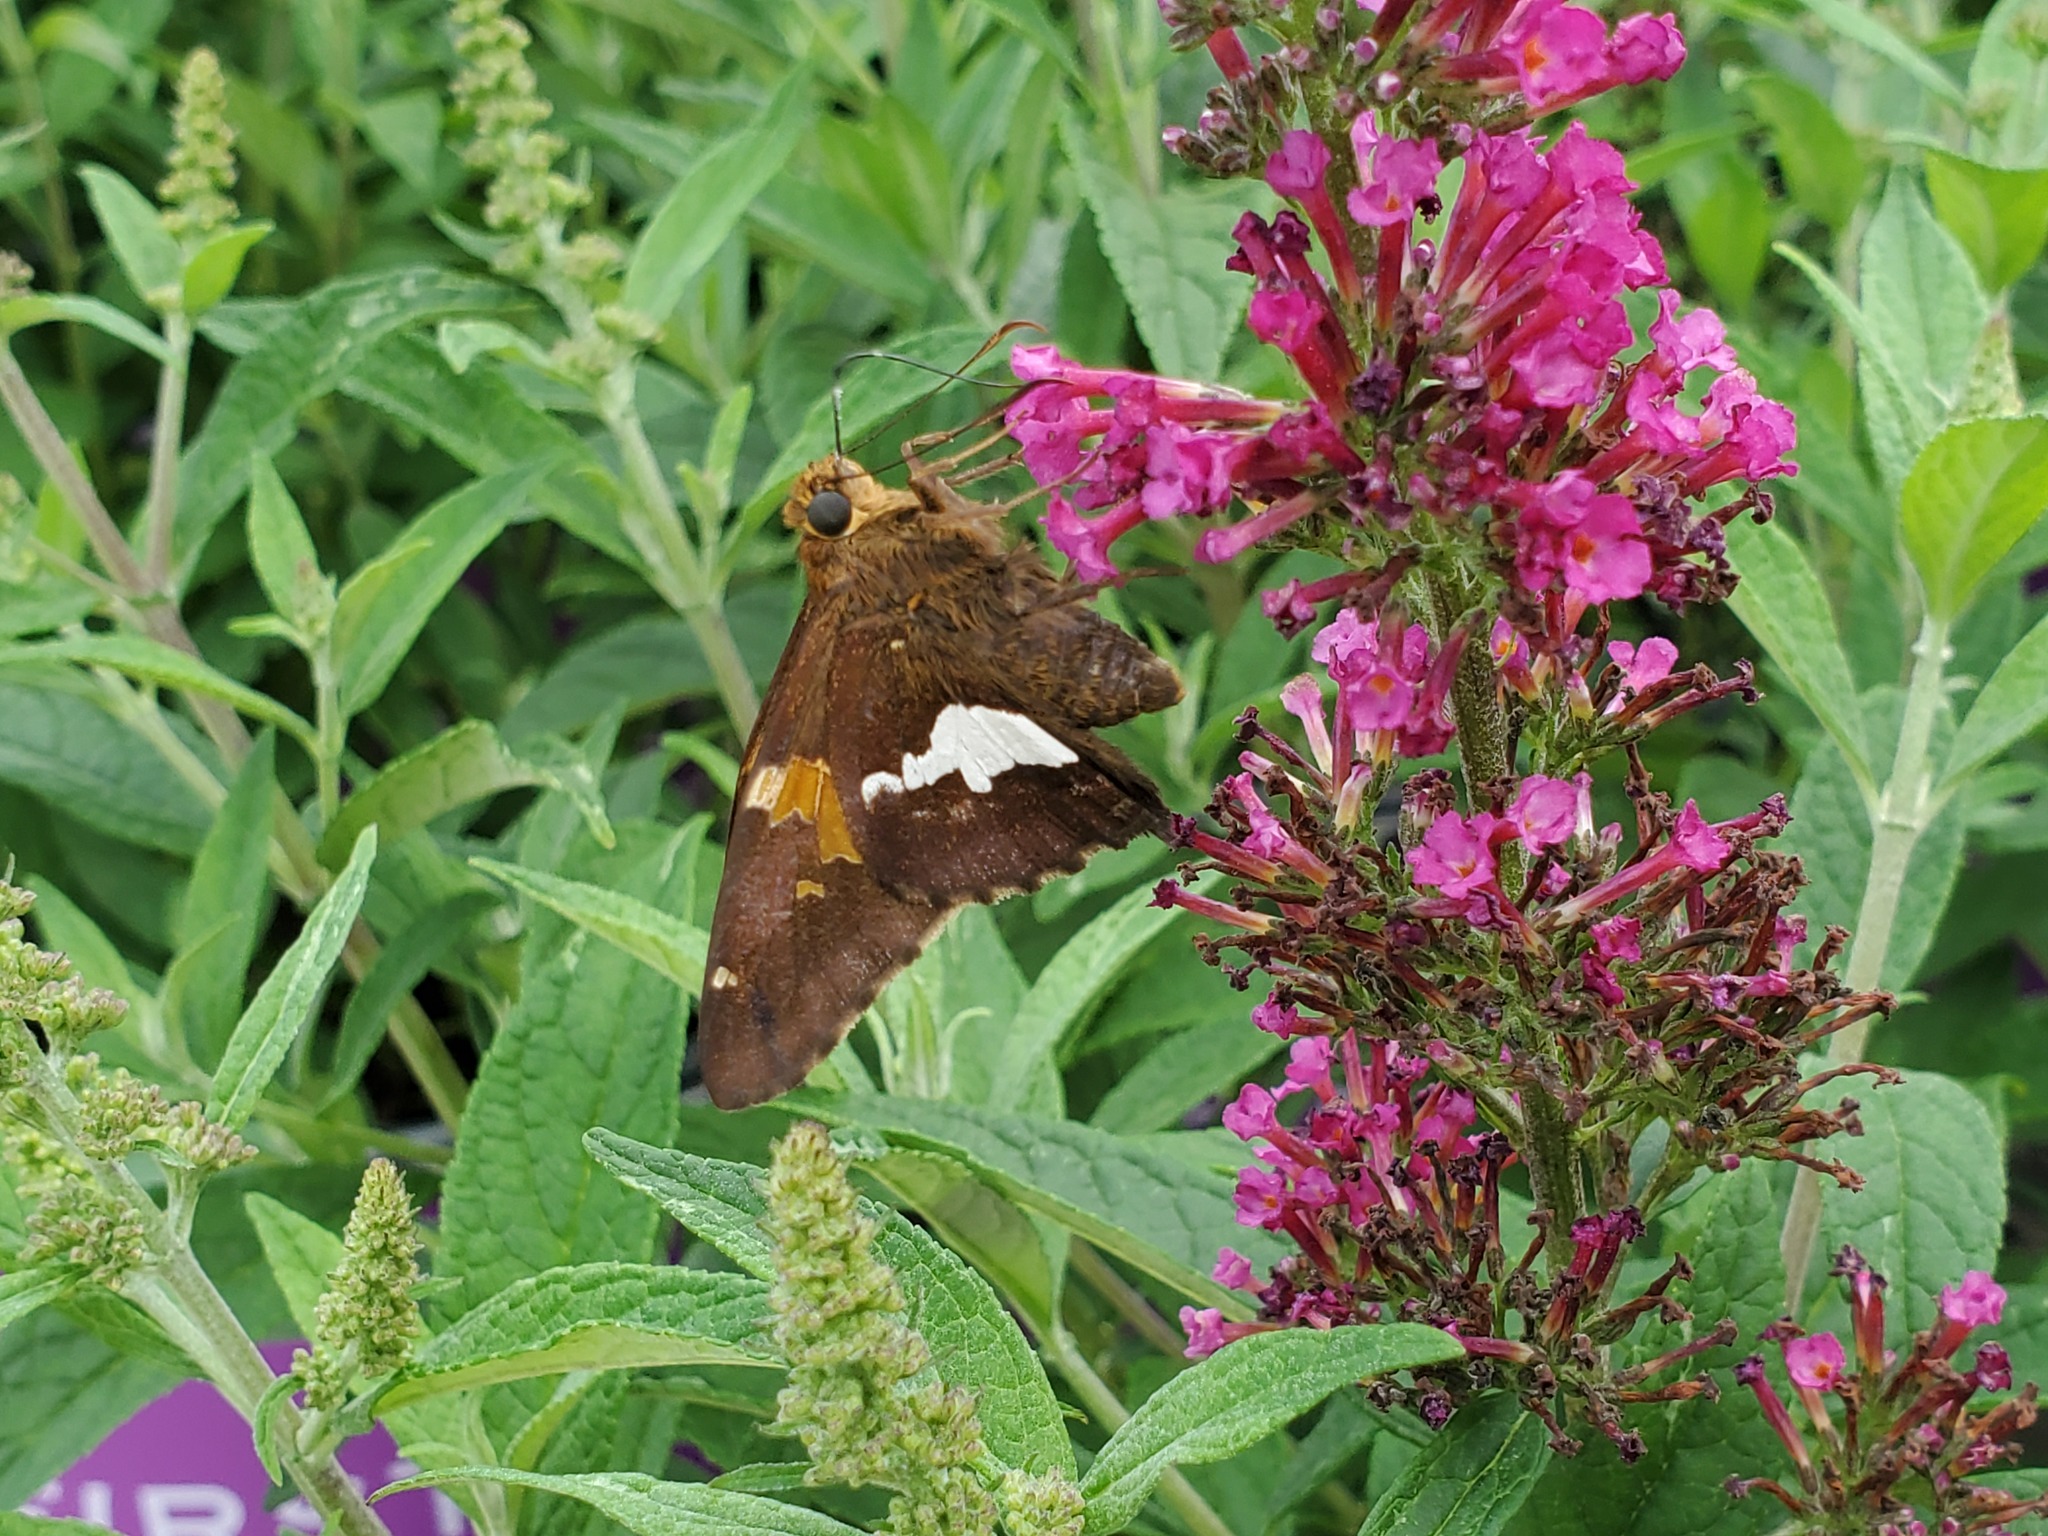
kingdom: Animalia
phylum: Arthropoda
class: Insecta
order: Lepidoptera
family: Hesperiidae
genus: Epargyreus
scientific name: Epargyreus clarus
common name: Silver-spotted skipper
